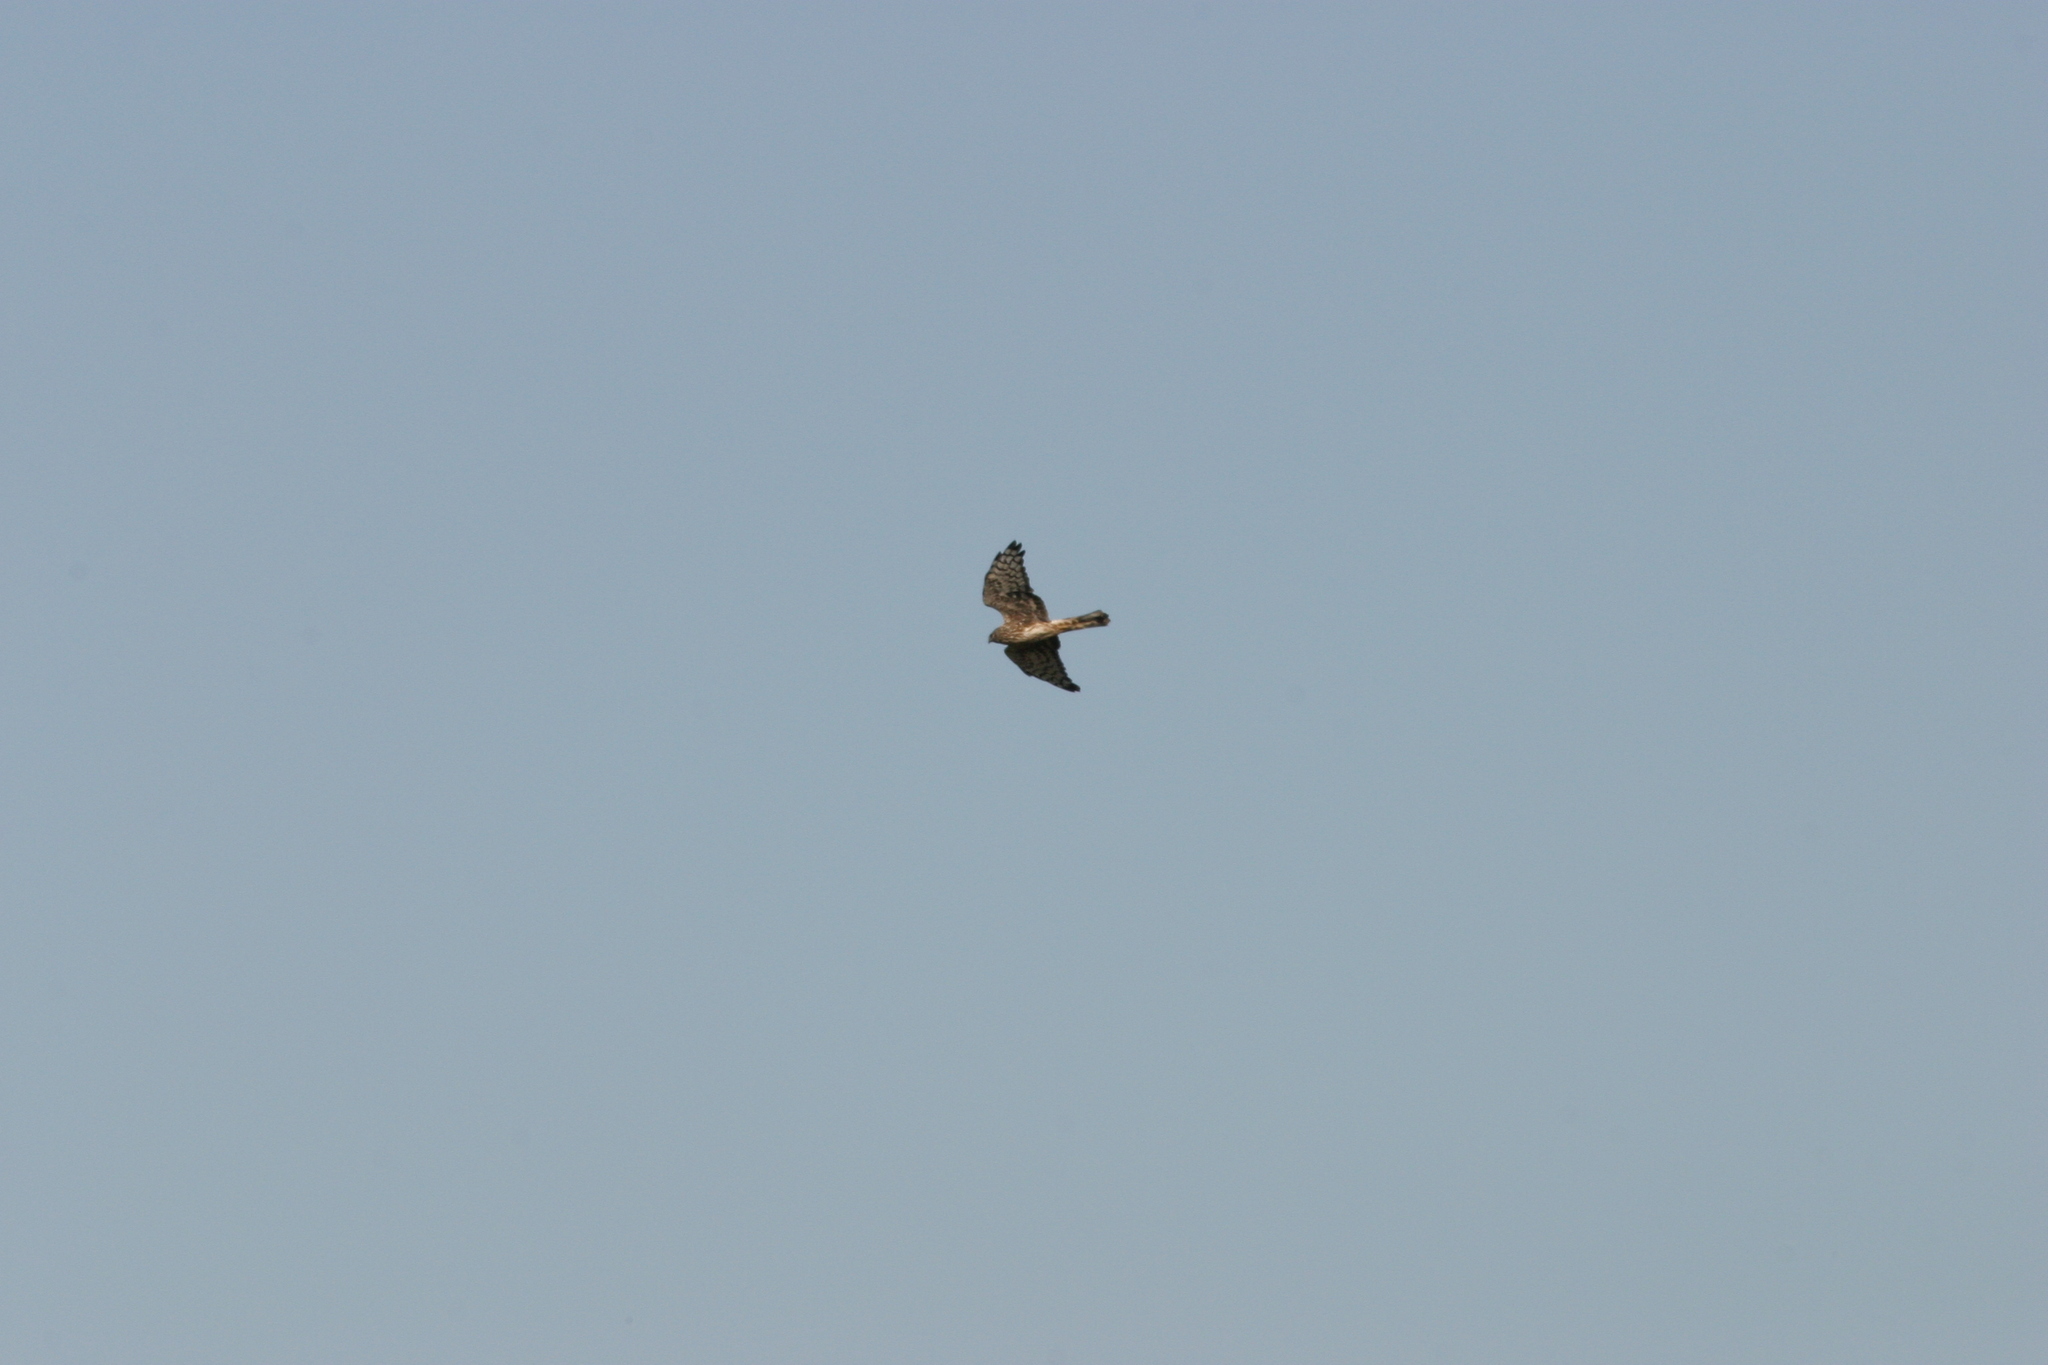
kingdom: Animalia
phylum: Chordata
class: Aves
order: Accipitriformes
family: Accipitridae
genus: Circus
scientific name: Circus cyaneus
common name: Hen harrier
